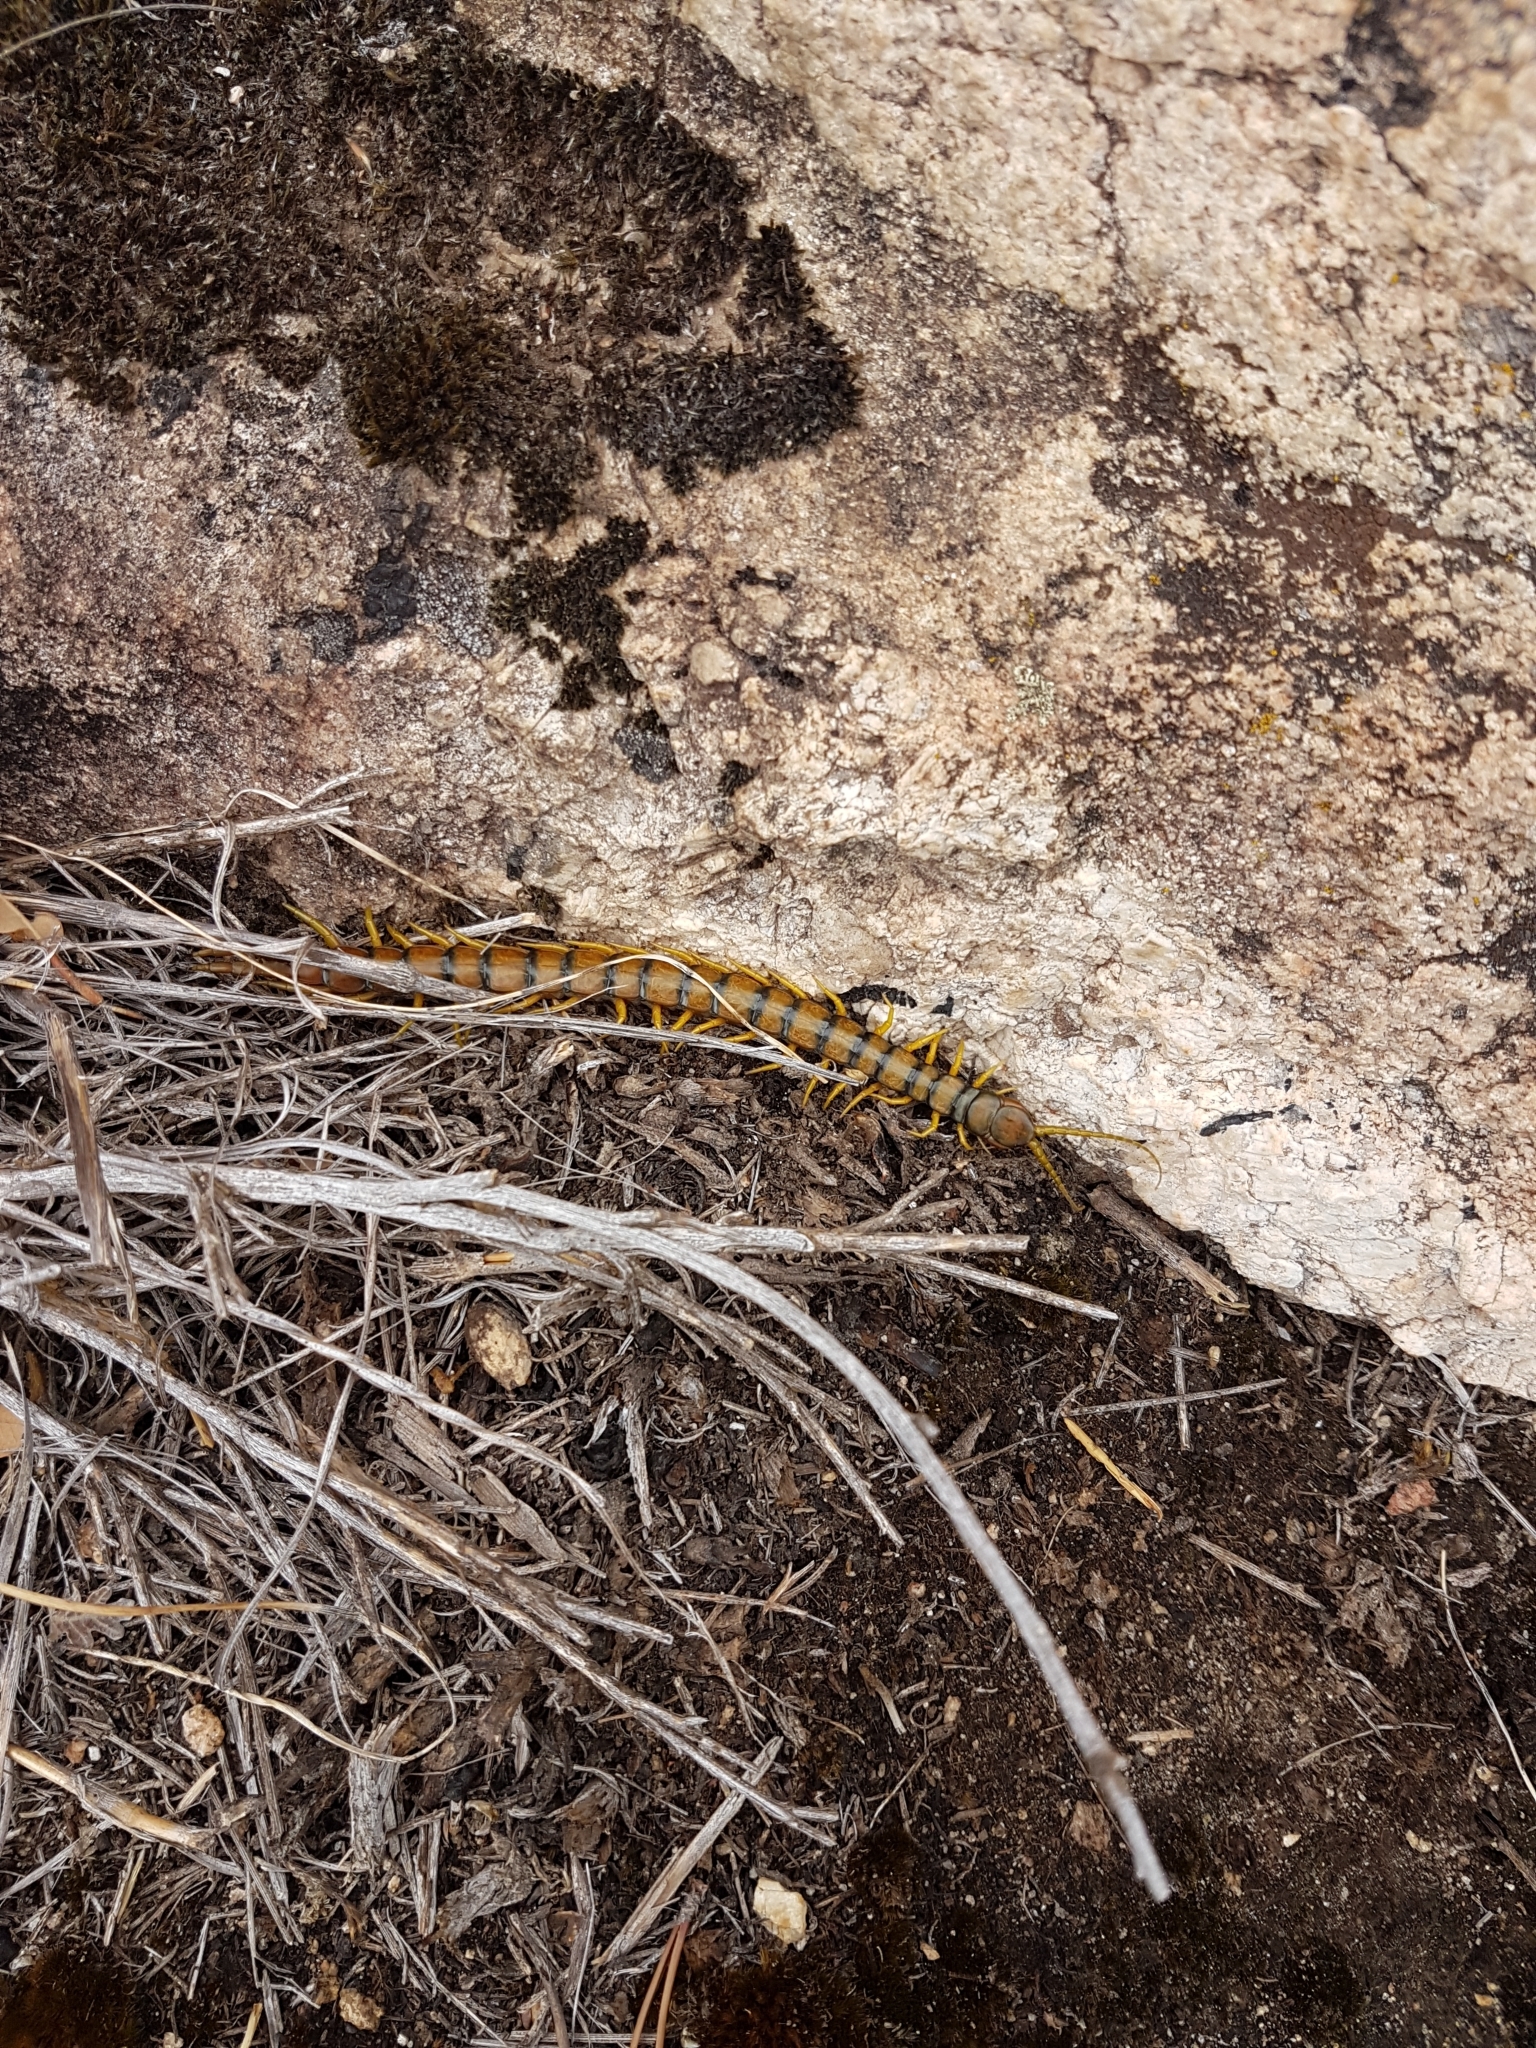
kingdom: Animalia
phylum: Arthropoda
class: Chilopoda
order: Scolopendromorpha
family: Scolopendridae
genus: Scolopendra
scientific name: Scolopendra cingulata
